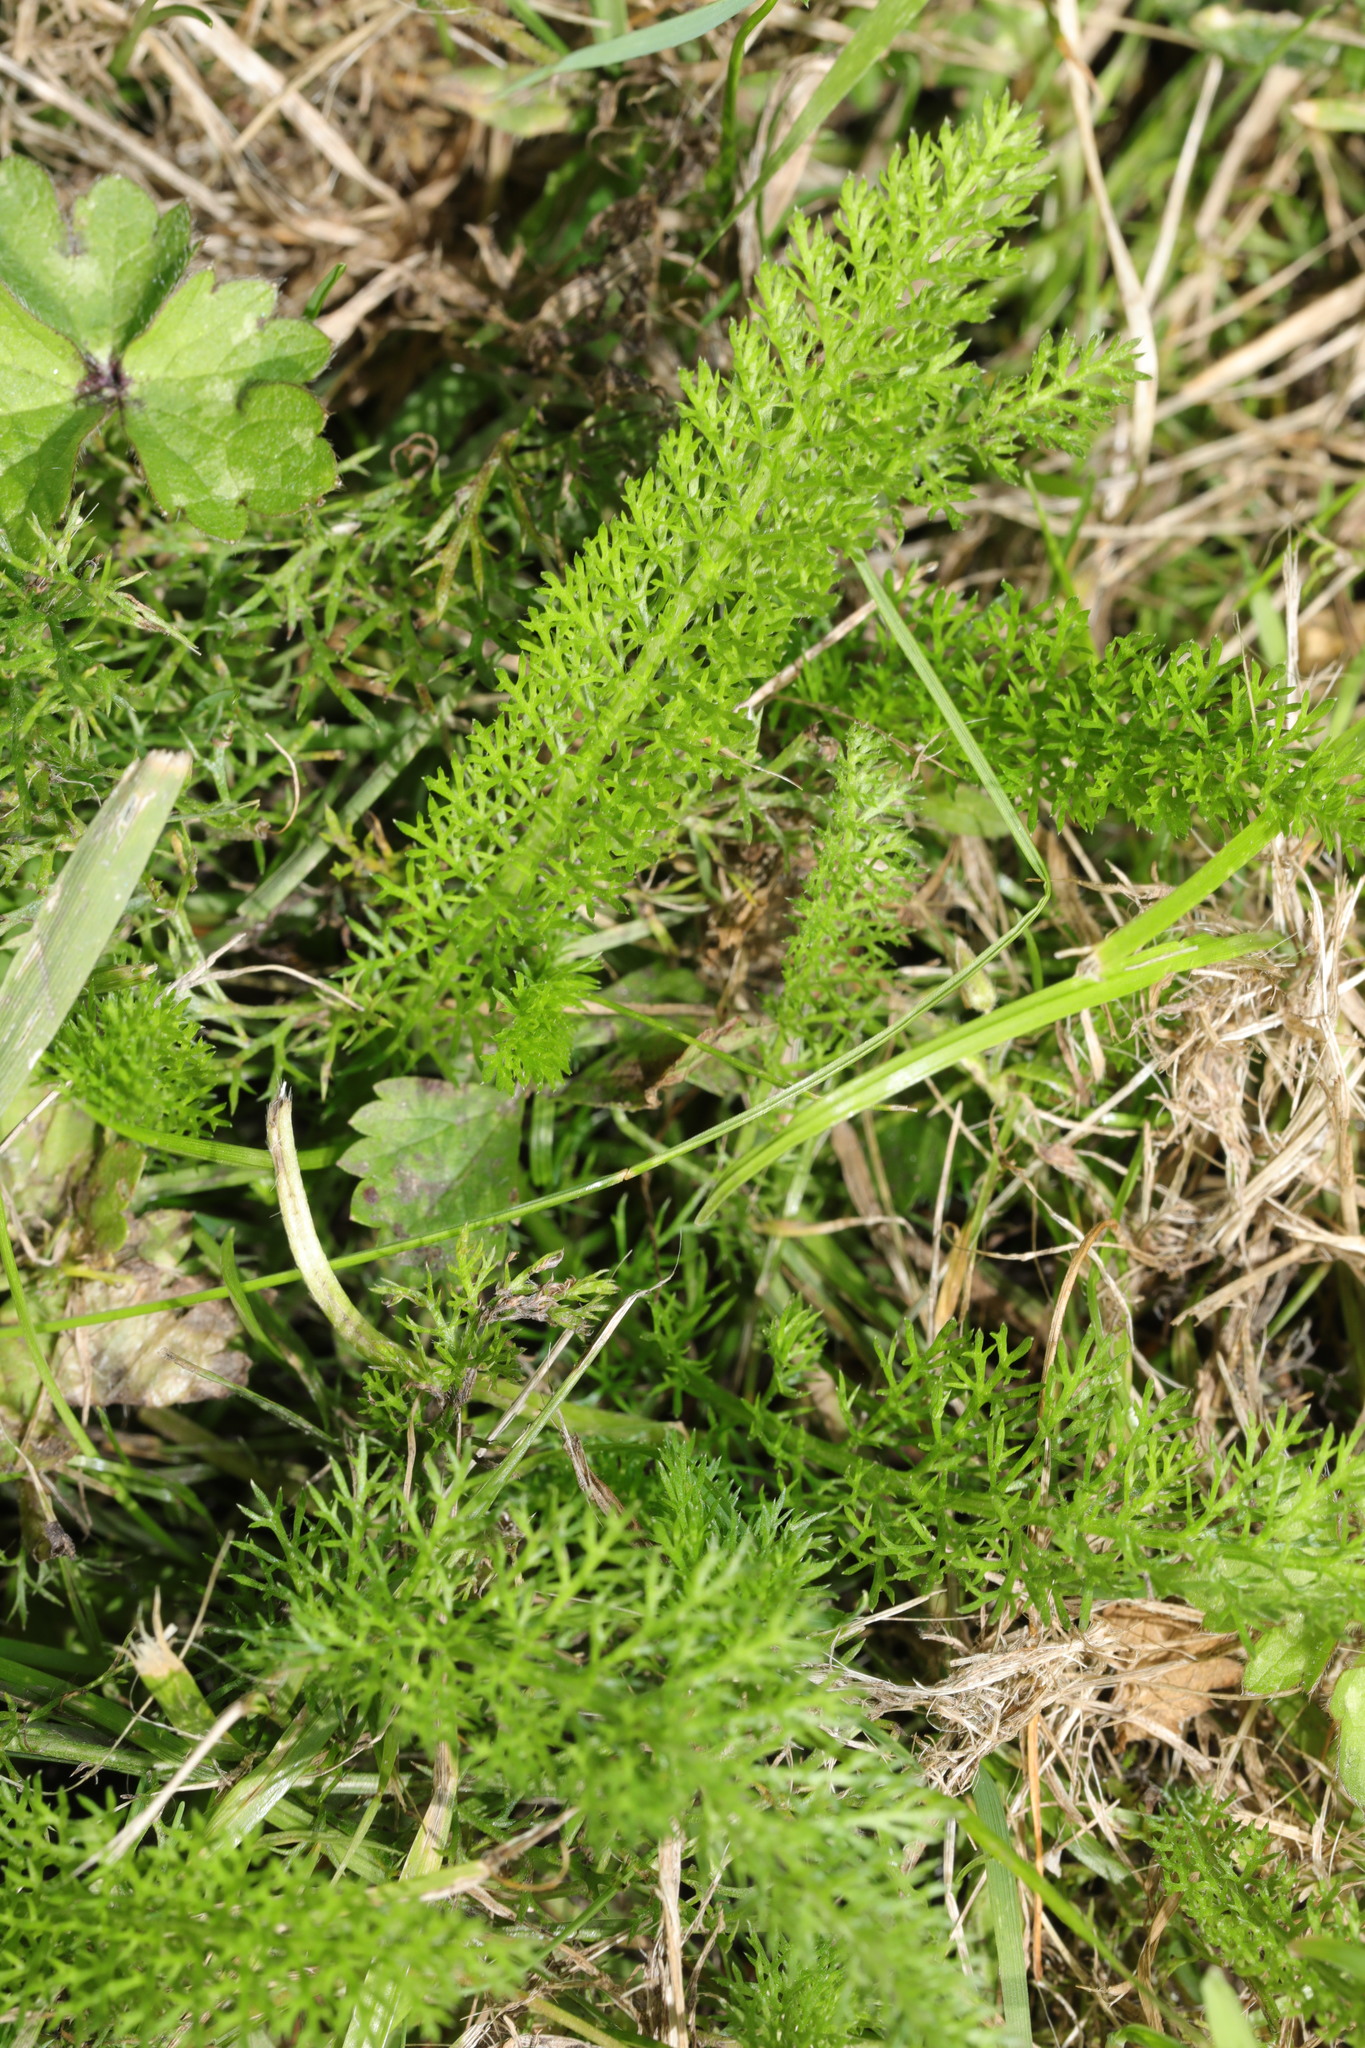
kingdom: Plantae
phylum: Tracheophyta
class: Magnoliopsida
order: Asterales
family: Asteraceae
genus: Achillea
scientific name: Achillea millefolium
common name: Yarrow
